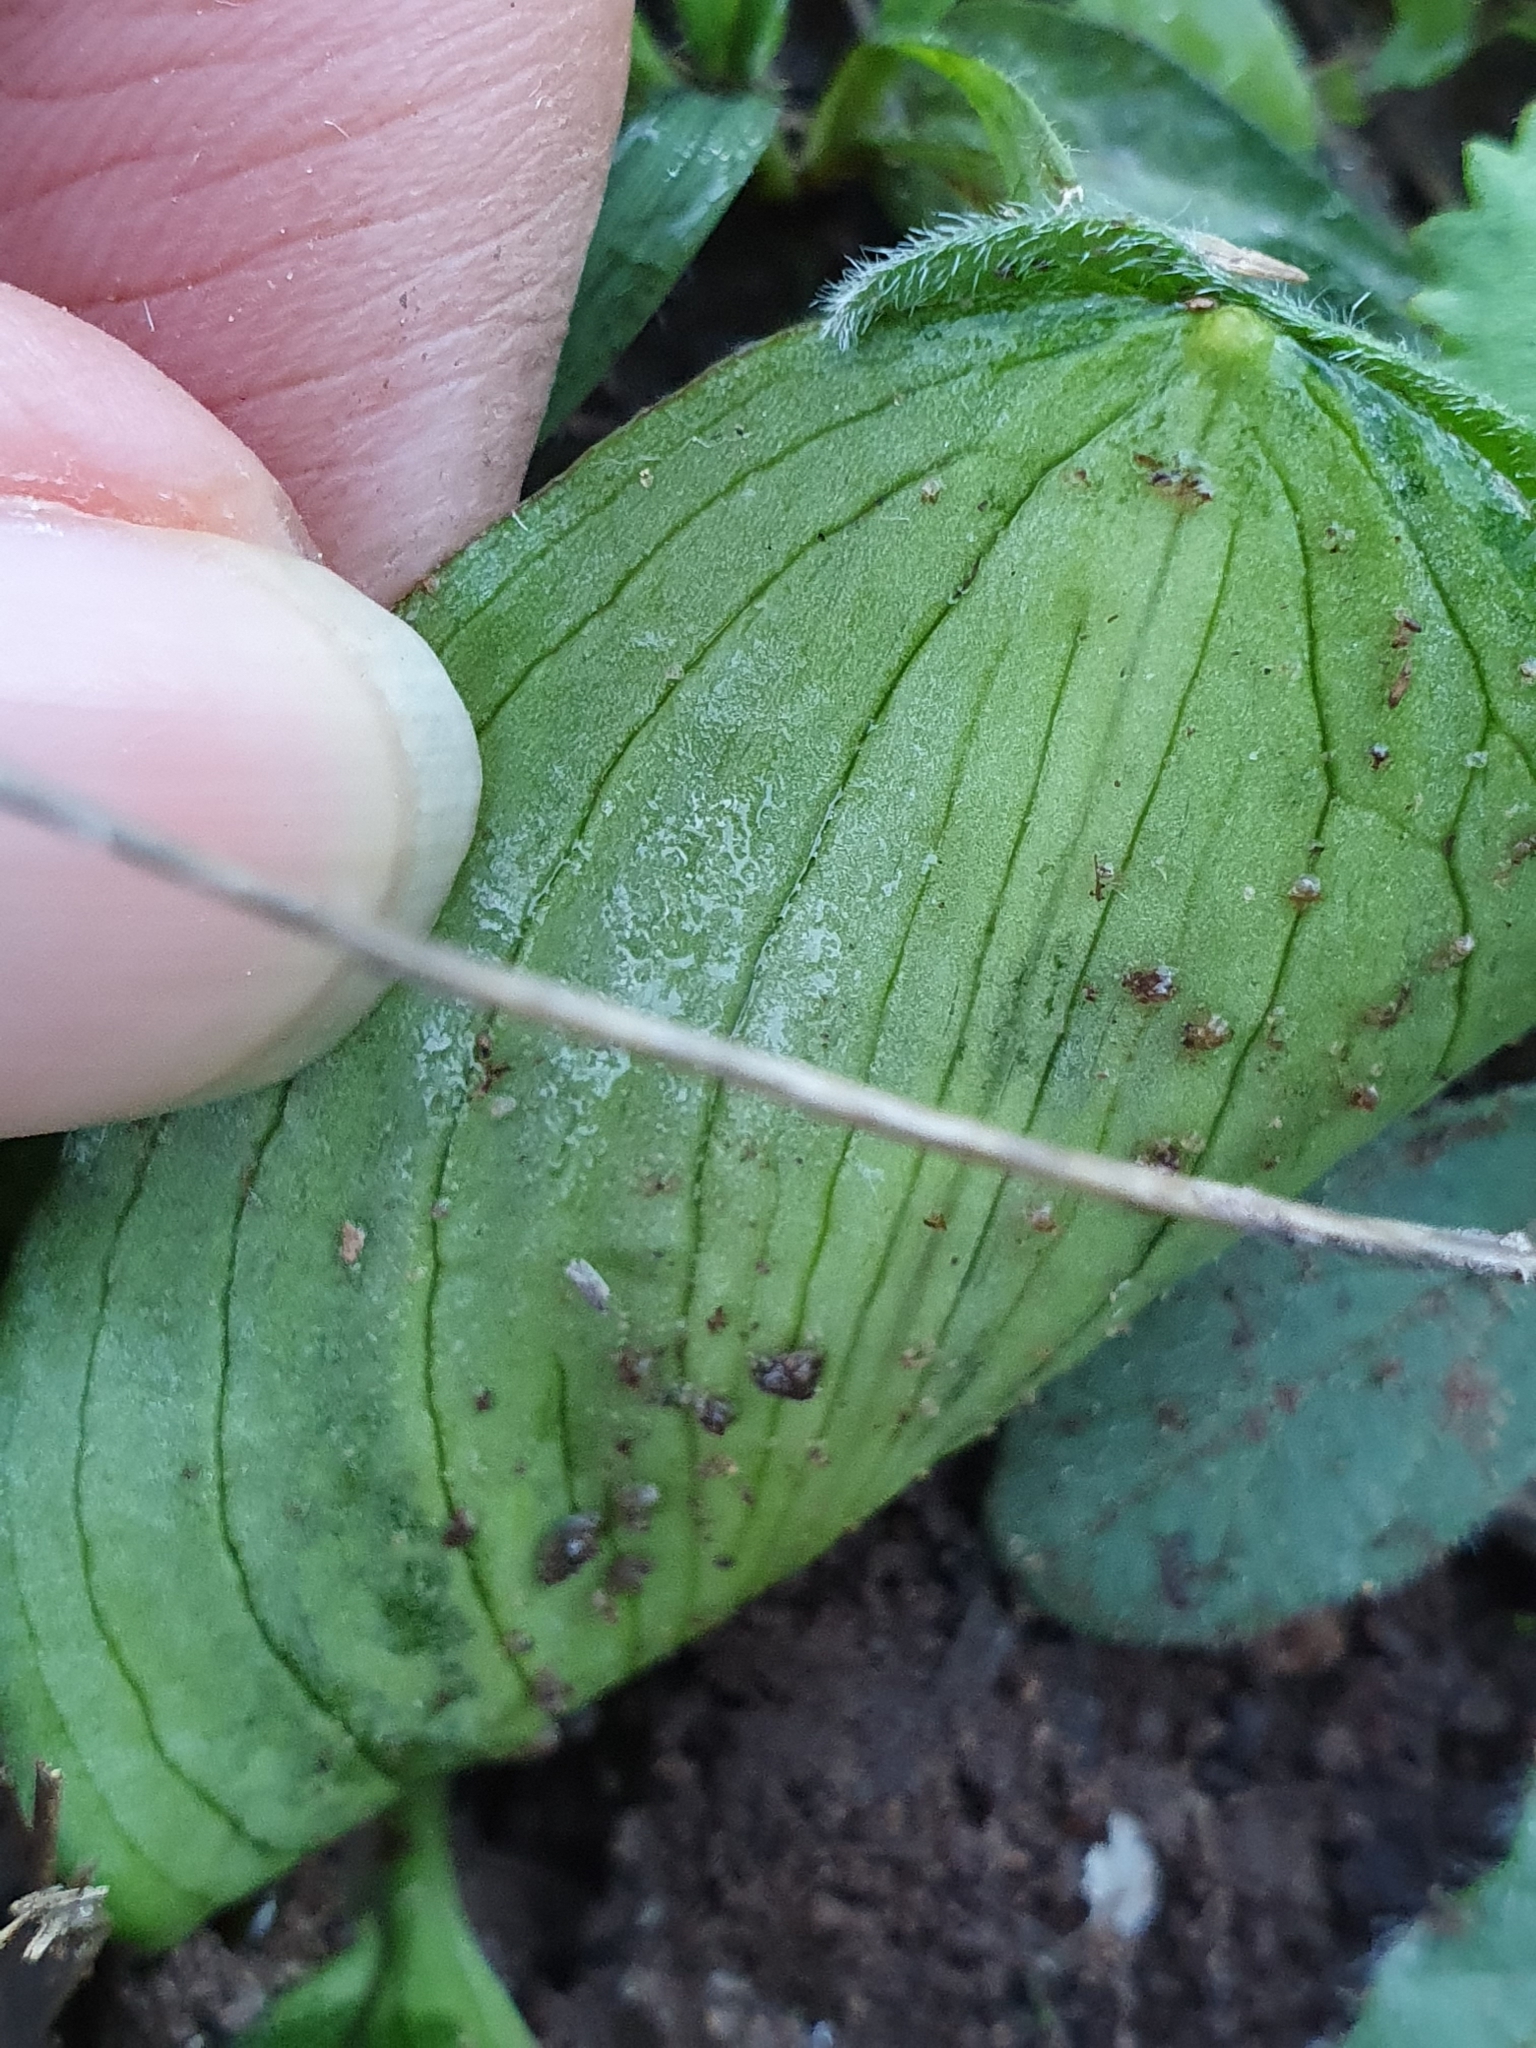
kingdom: Plantae
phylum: Tracheophyta
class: Liliopsida
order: Alismatales
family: Araceae
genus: Ambrosina
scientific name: Ambrosina bassii
